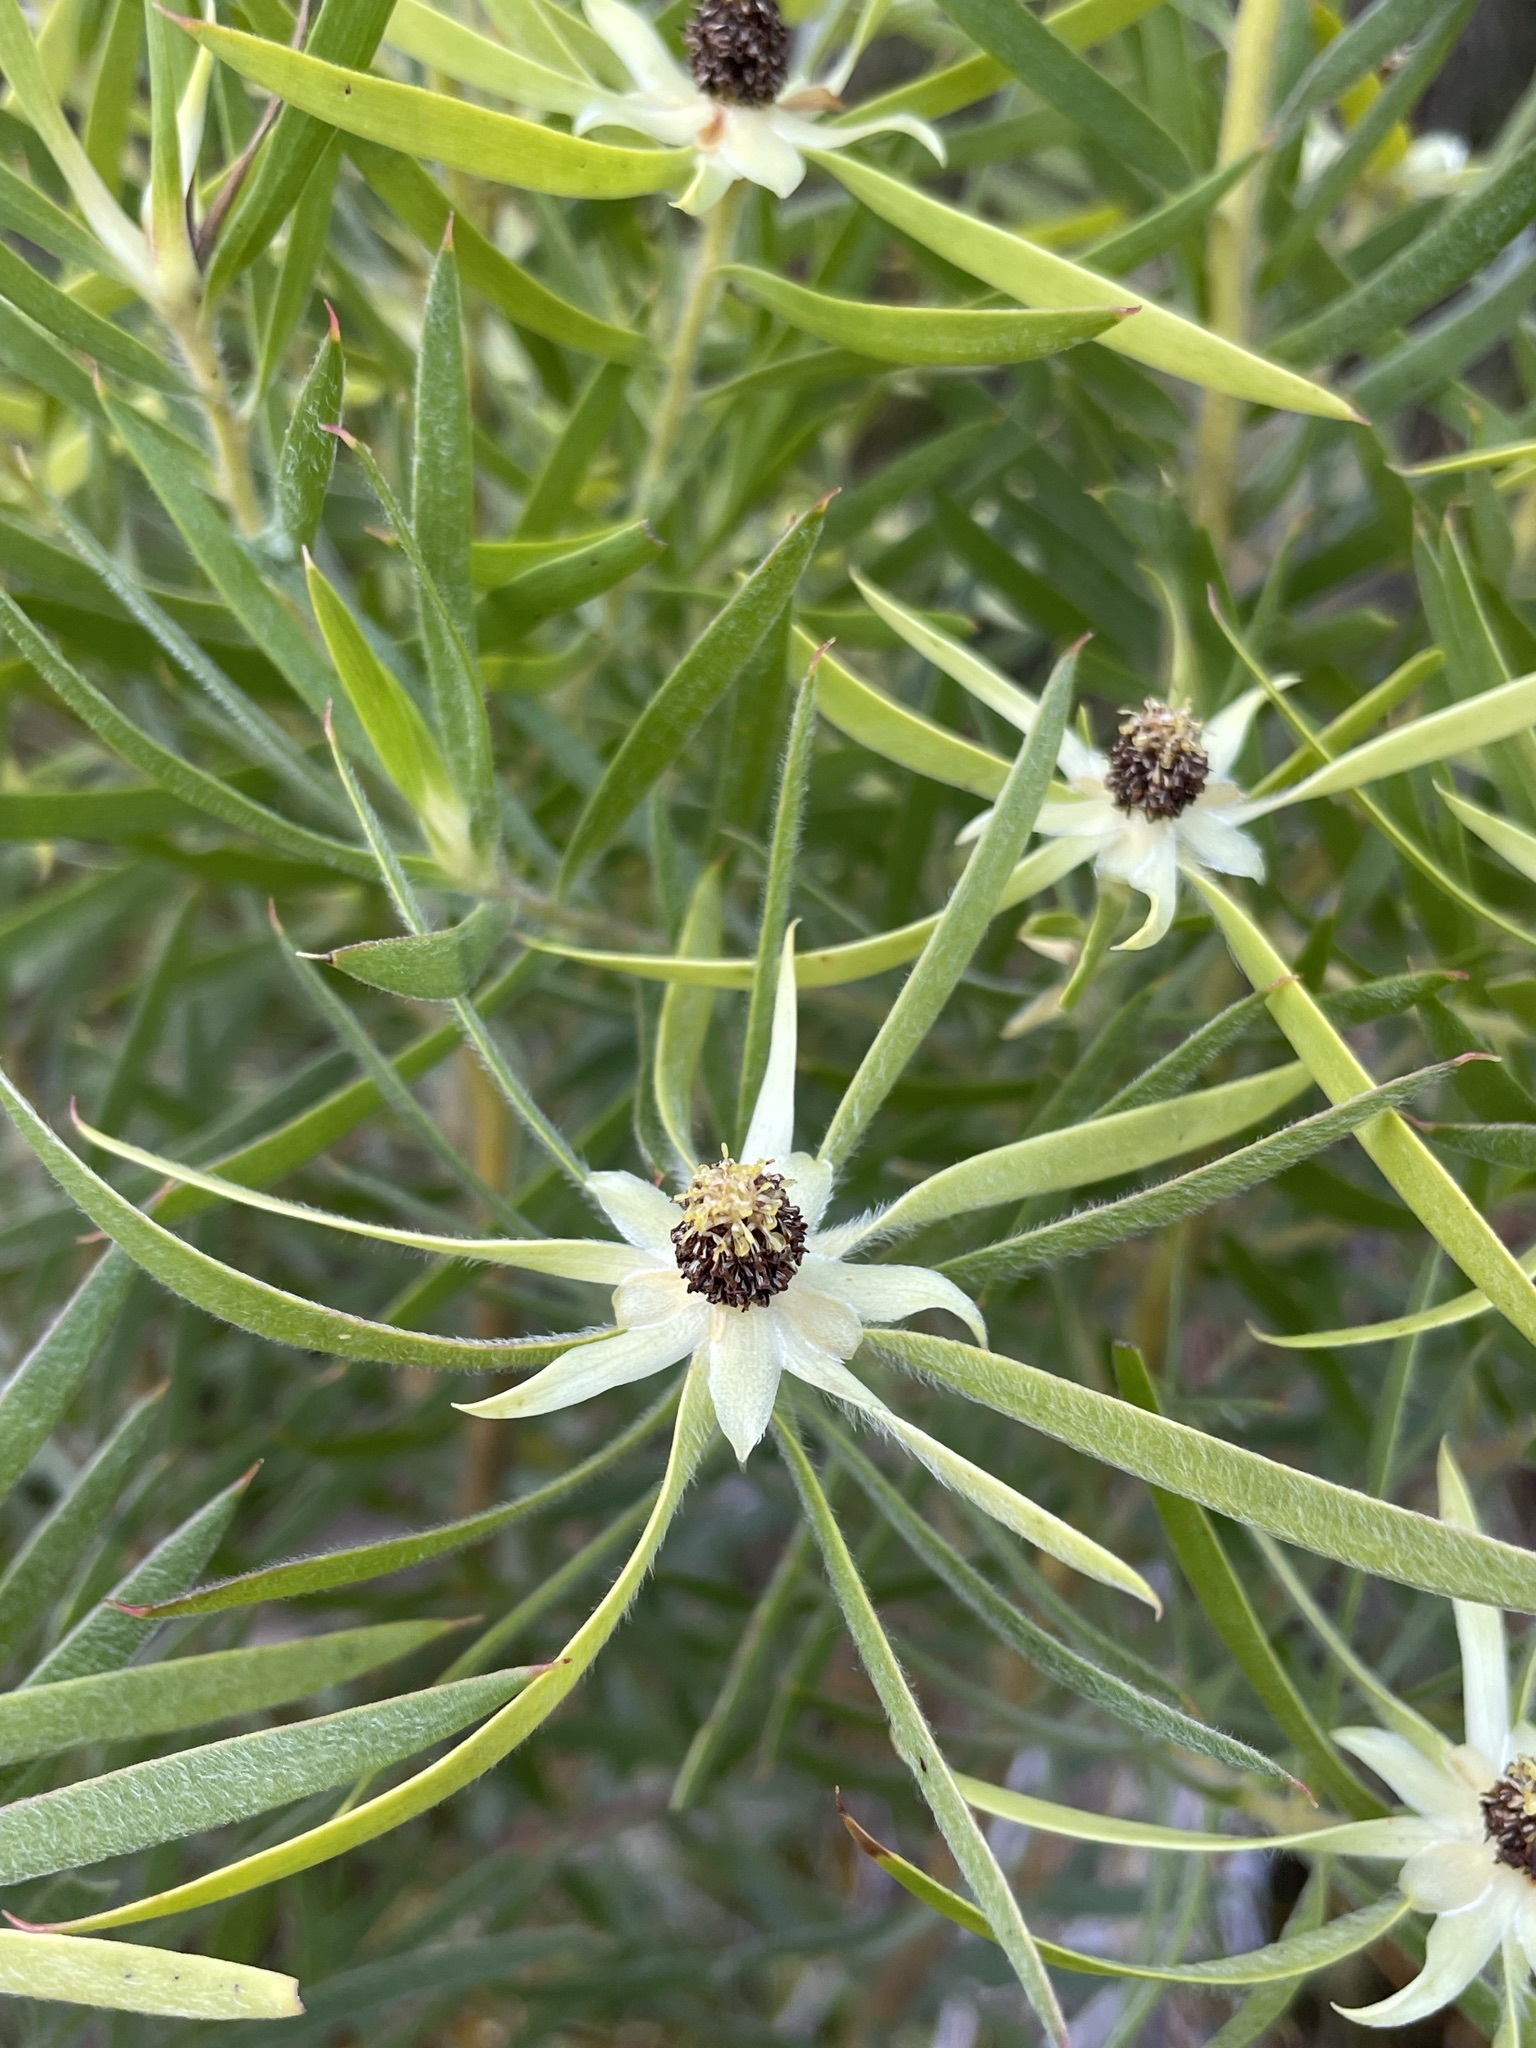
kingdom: Plantae
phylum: Tracheophyta
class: Magnoliopsida
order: Proteales
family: Proteaceae
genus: Leucadendron
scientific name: Leucadendron eucalyptifolium
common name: Gum-leaved conebush
